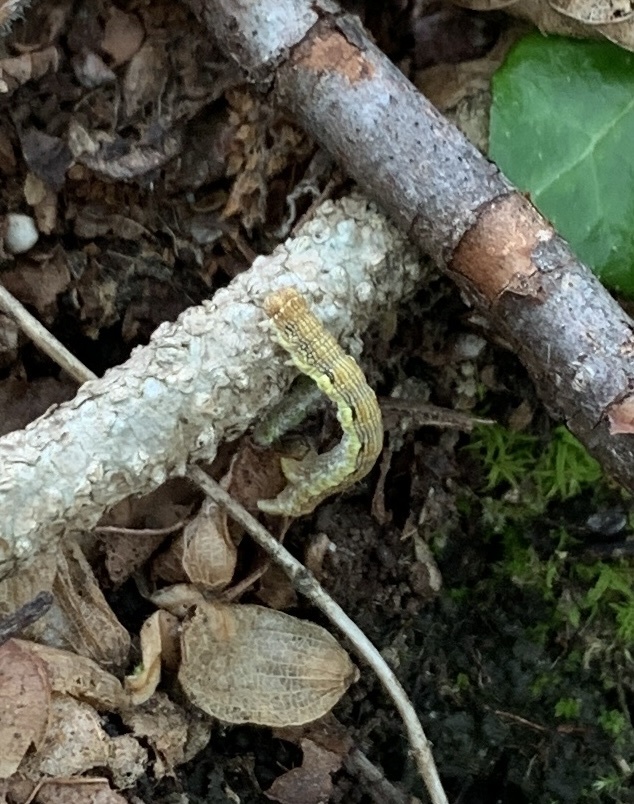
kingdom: Animalia
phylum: Arthropoda
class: Insecta
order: Lepidoptera
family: Geometridae
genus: Erannis
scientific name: Erannis defoliaria
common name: Mottled umber
